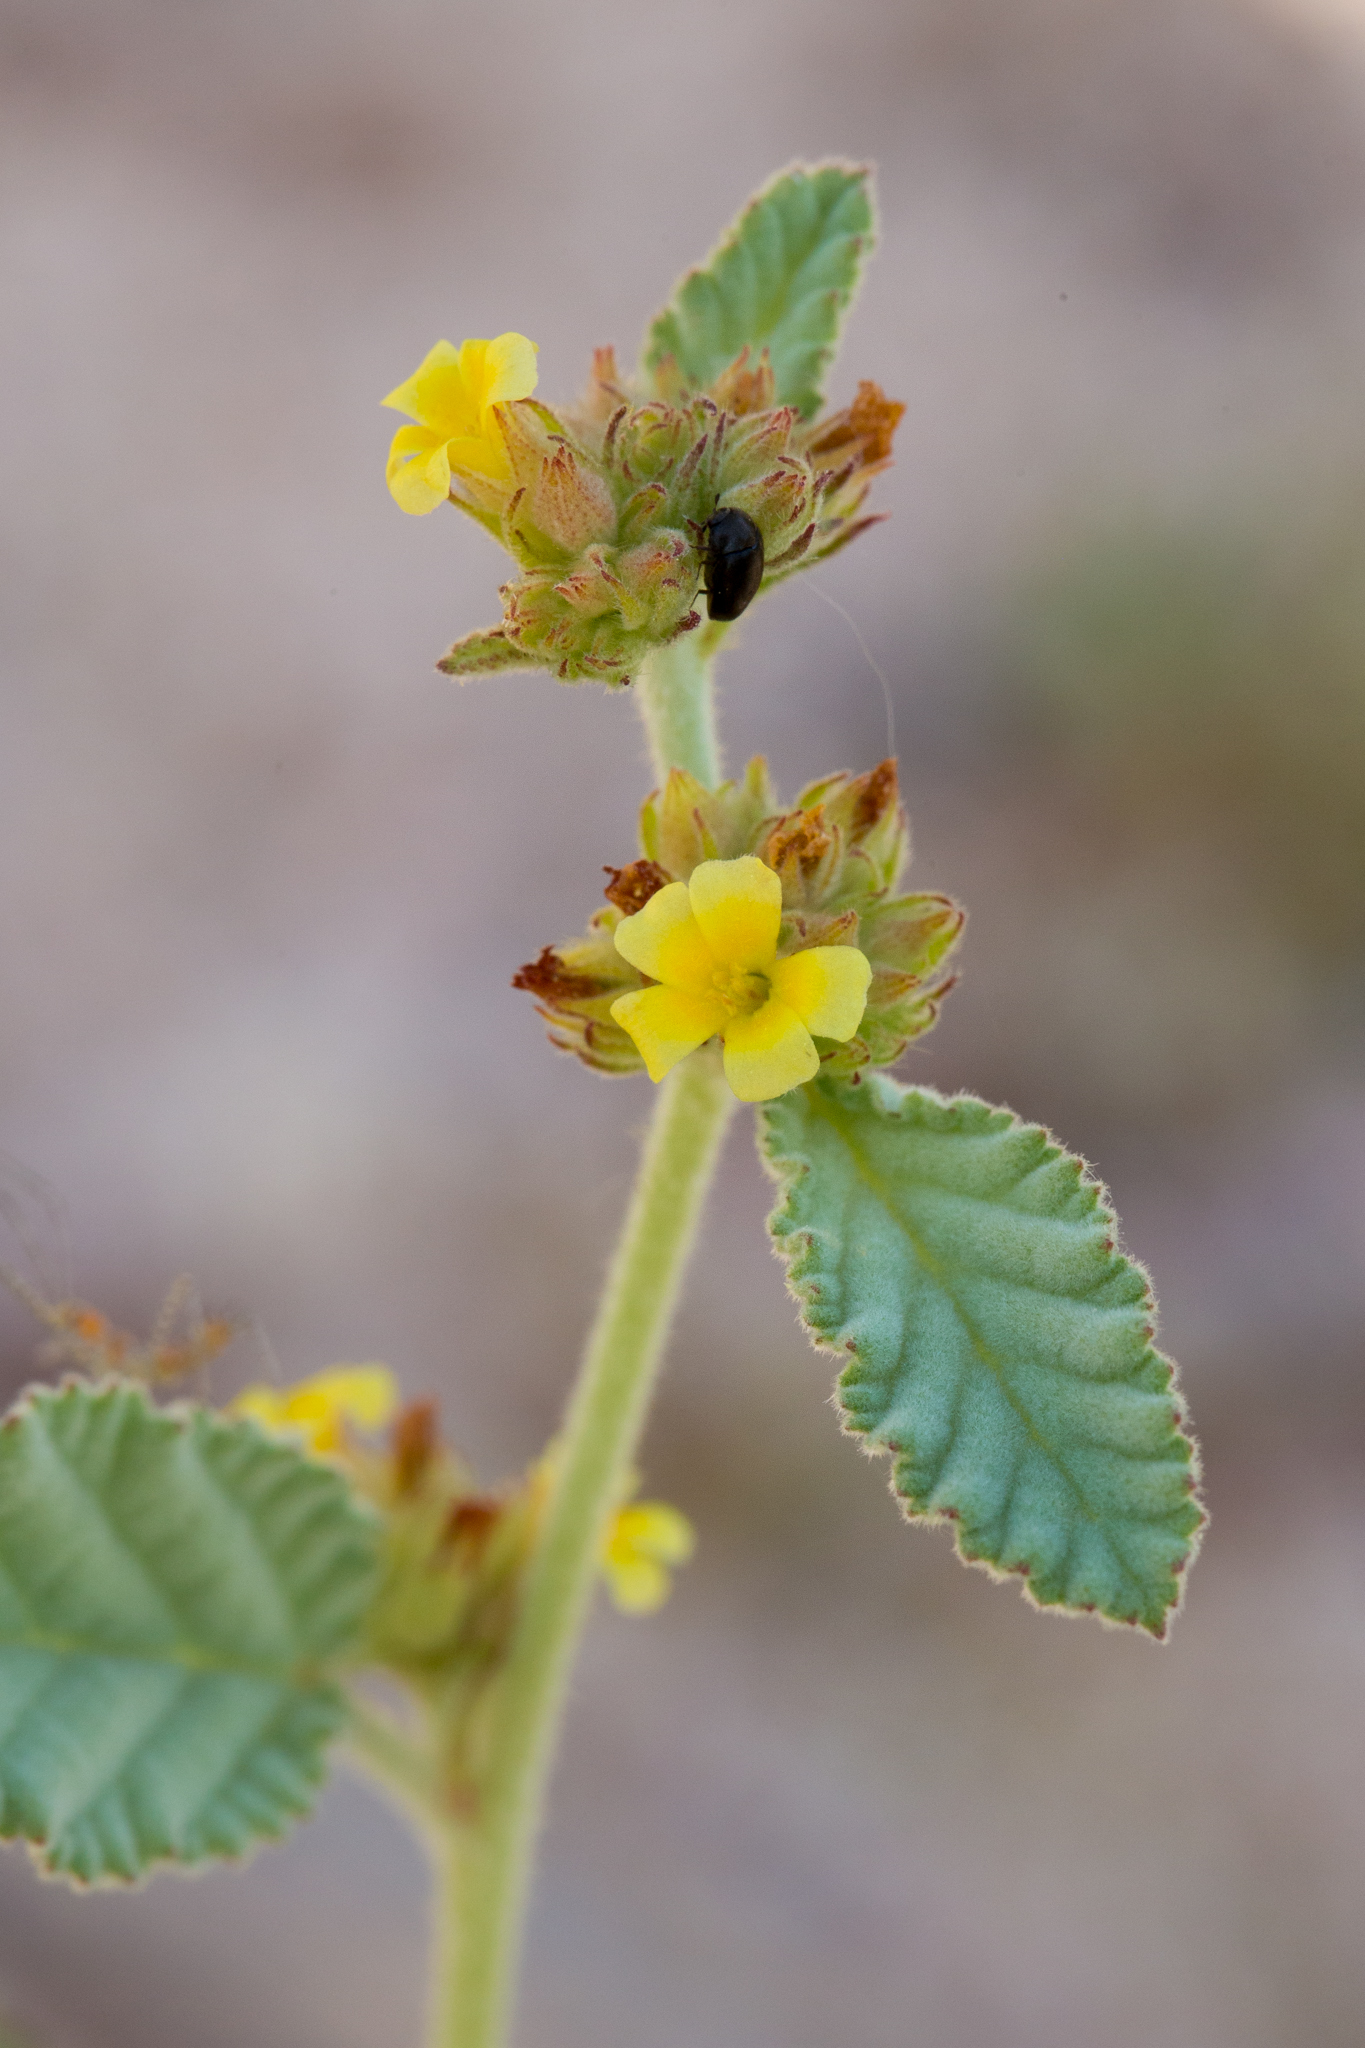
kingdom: Plantae
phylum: Tracheophyta
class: Magnoliopsida
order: Malvales
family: Malvaceae
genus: Waltheria
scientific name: Waltheria indica
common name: Leather-coat
